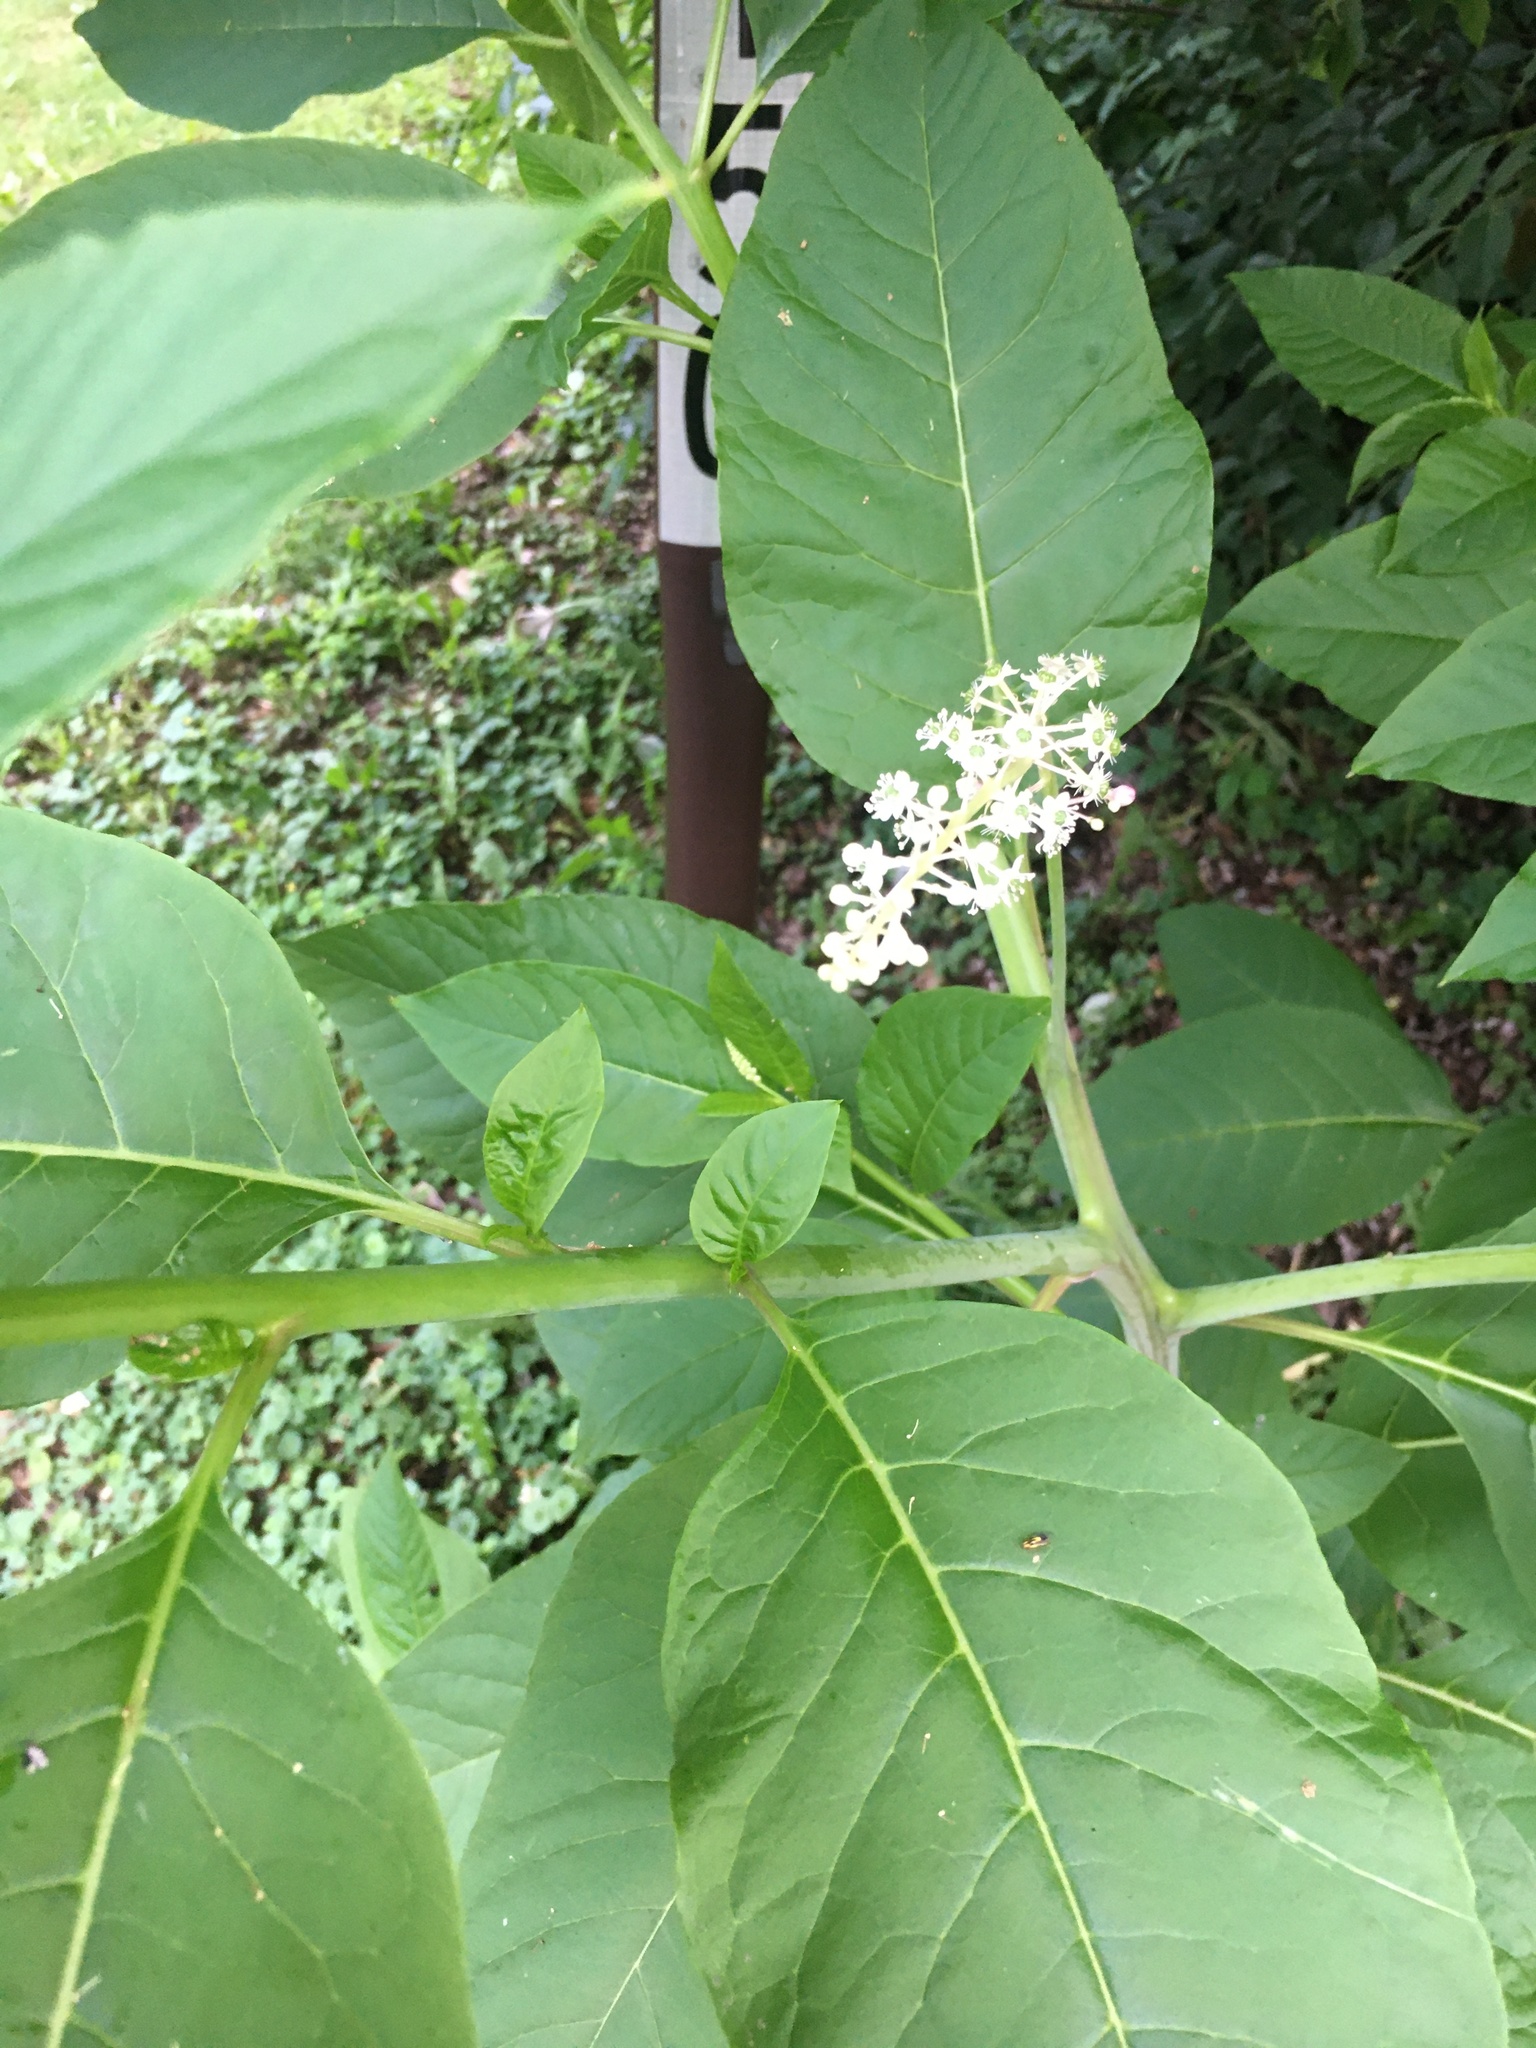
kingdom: Plantae
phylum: Tracheophyta
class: Magnoliopsida
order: Caryophyllales
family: Phytolaccaceae
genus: Phytolacca
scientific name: Phytolacca americana
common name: American pokeweed
